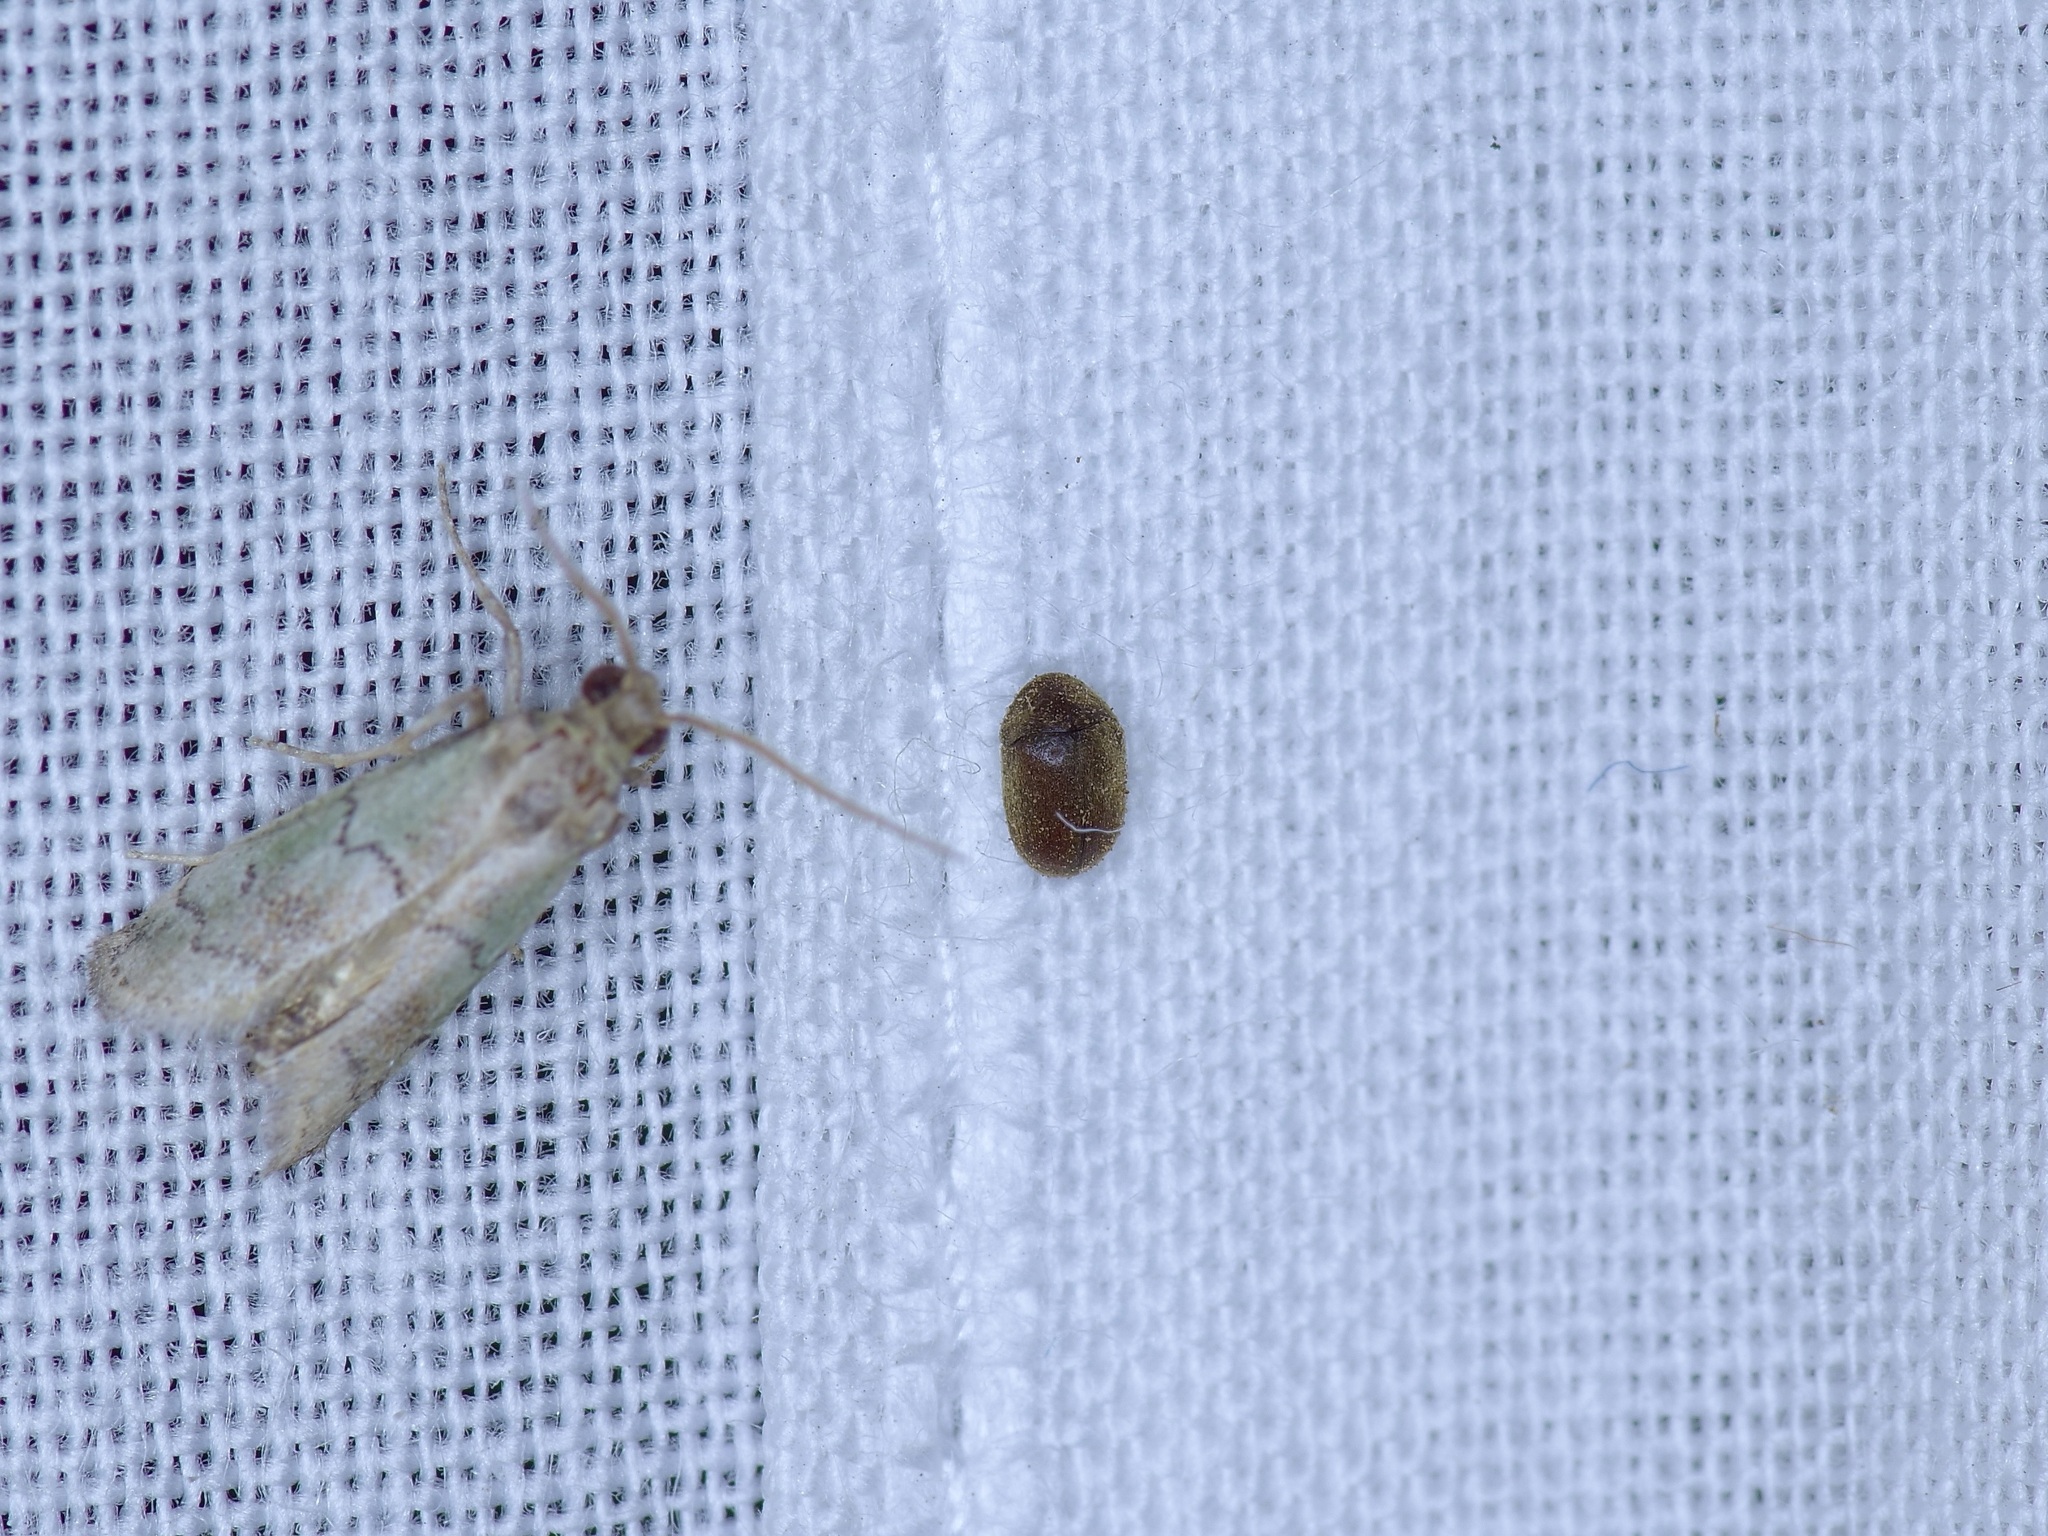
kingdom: Animalia
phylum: Arthropoda
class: Insecta
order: Coleoptera
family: Anobiidae
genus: Lasioderma
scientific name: Lasioderma serricorne
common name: Cigarette beetle
